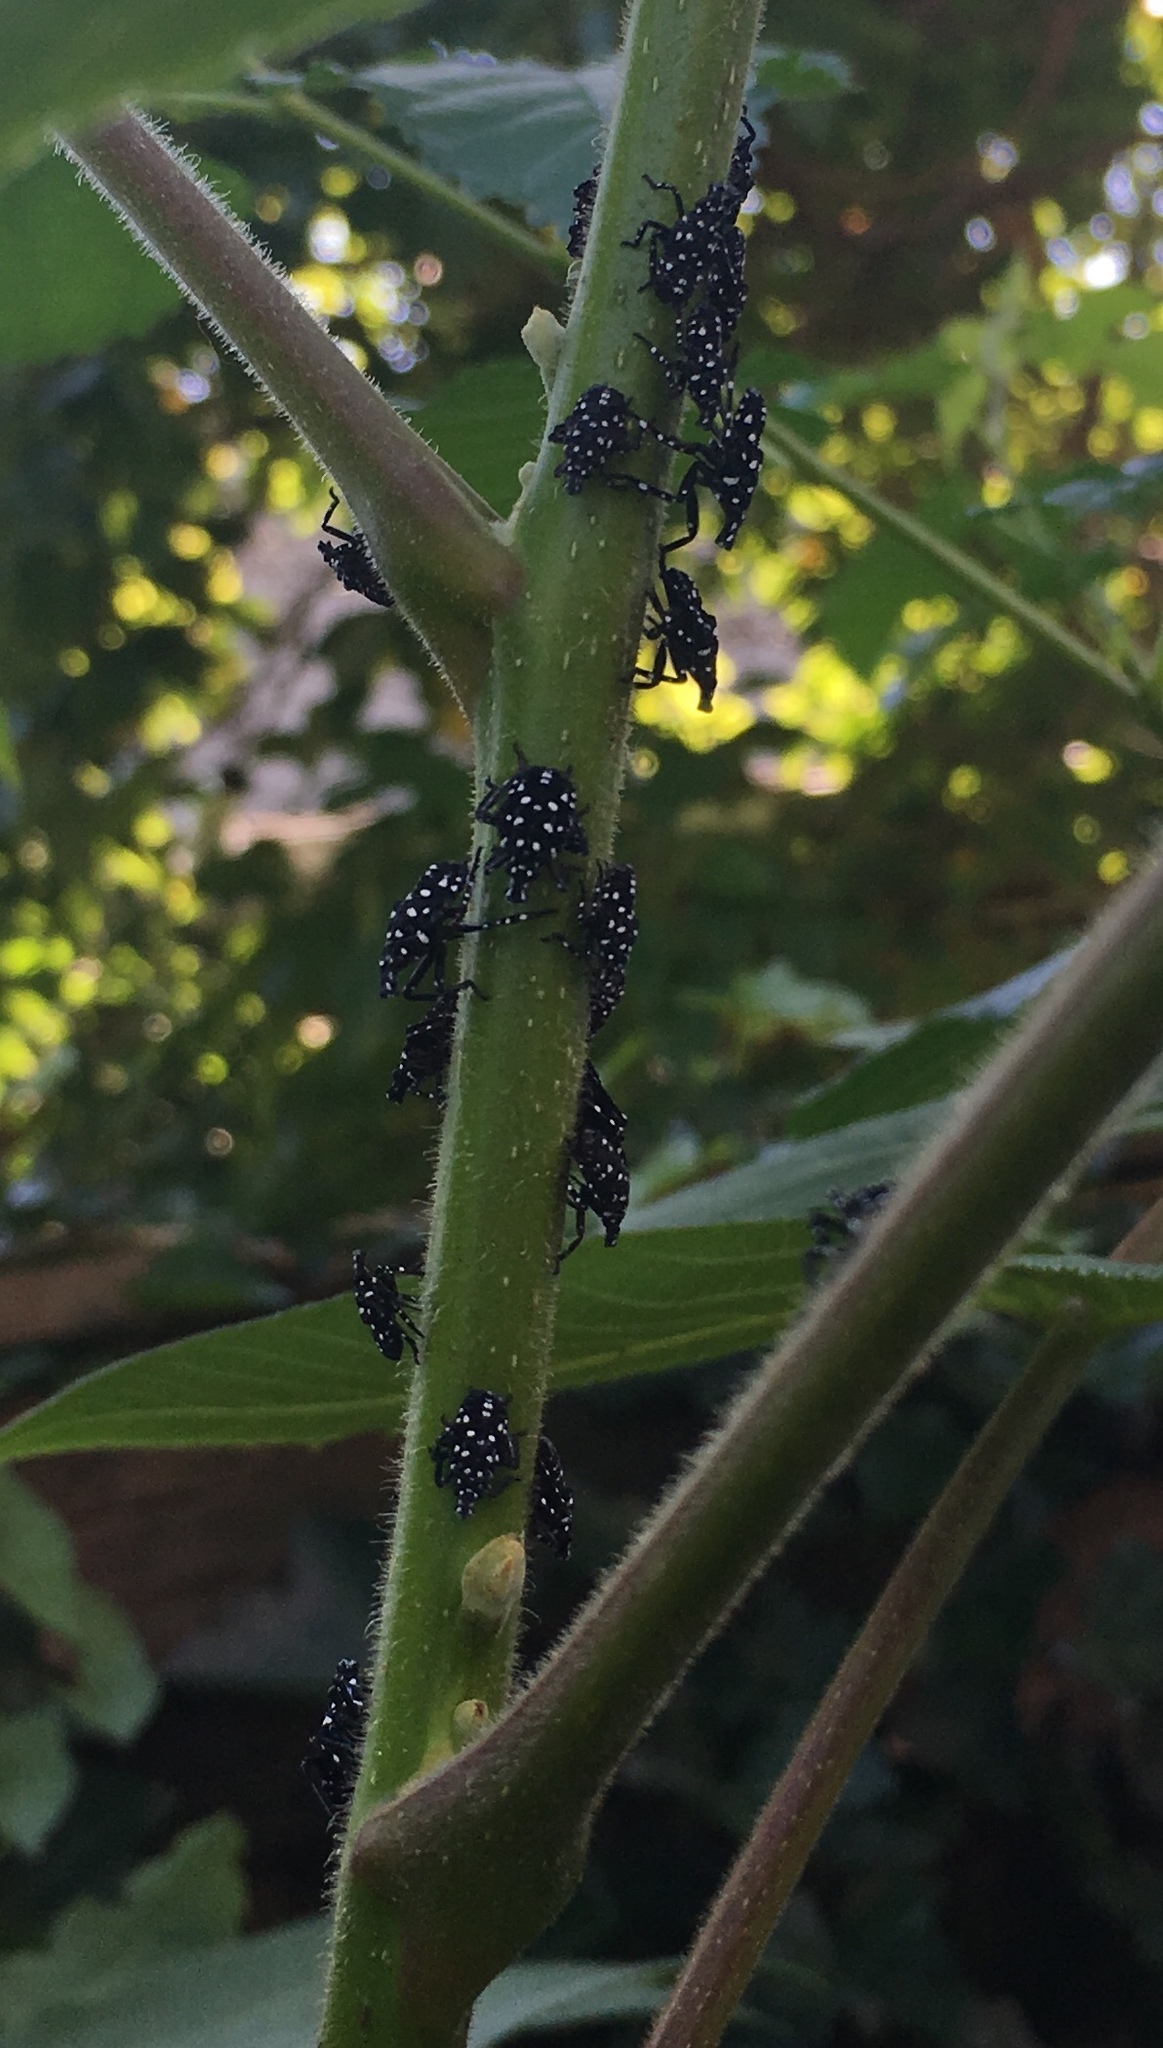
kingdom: Animalia
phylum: Arthropoda
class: Insecta
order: Hemiptera
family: Fulgoridae
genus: Lycorma
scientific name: Lycorma delicatula
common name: Spotted lanternfly
